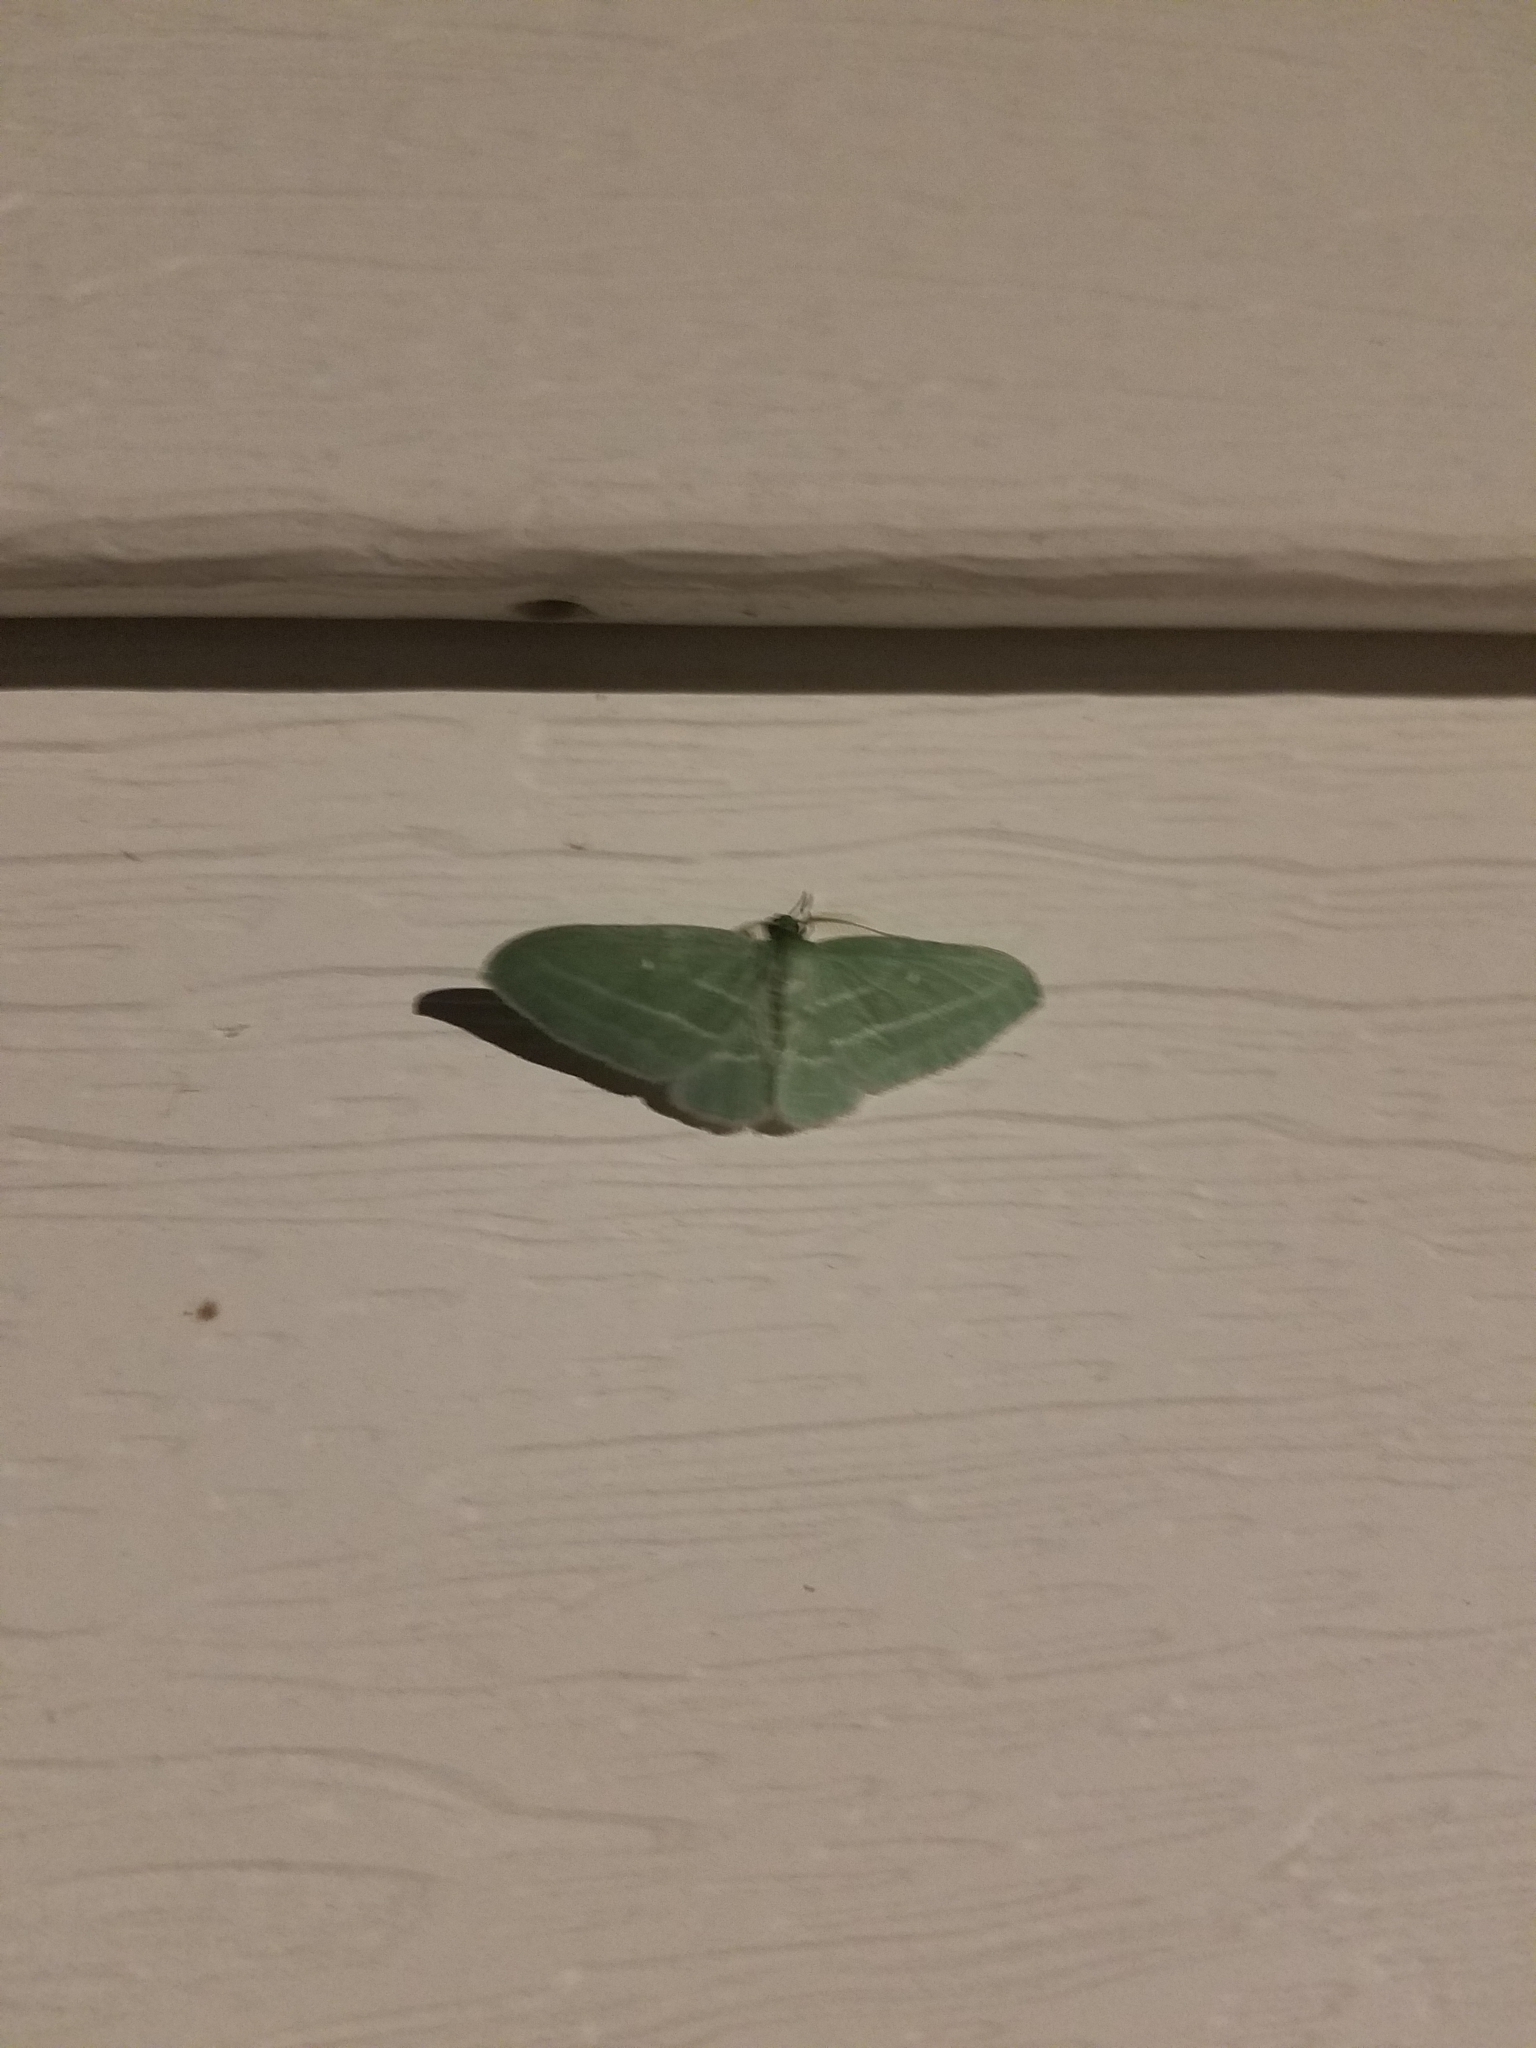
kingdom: Animalia
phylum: Arthropoda
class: Insecta
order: Lepidoptera
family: Geometridae
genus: Dyspteris
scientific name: Dyspteris abortivaria
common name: Bad-wing
